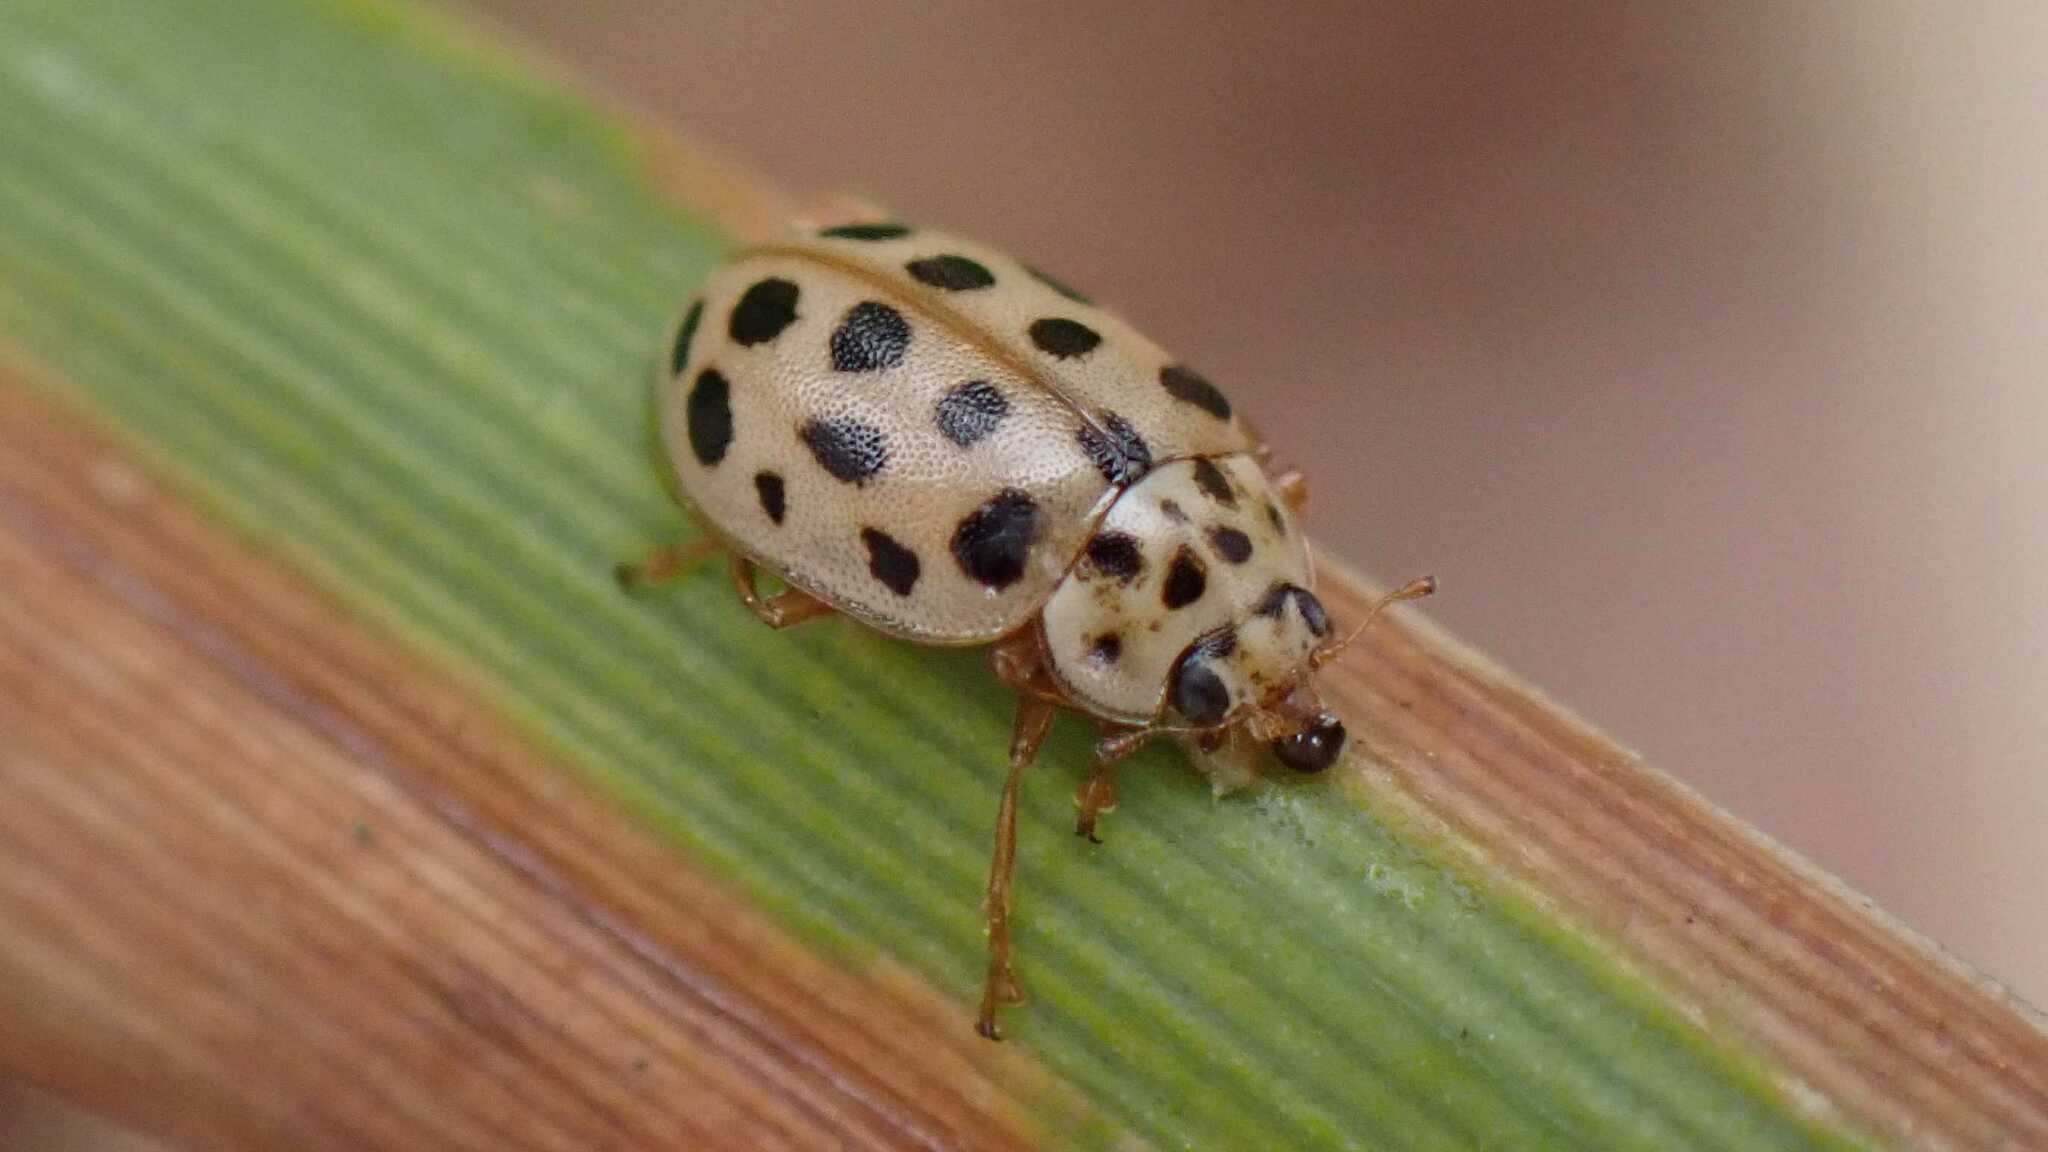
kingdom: Animalia
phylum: Arthropoda
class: Insecta
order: Coleoptera
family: Coccinellidae
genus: Anisosticta
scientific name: Anisosticta novemdecimpunctata
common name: Water ladybird
